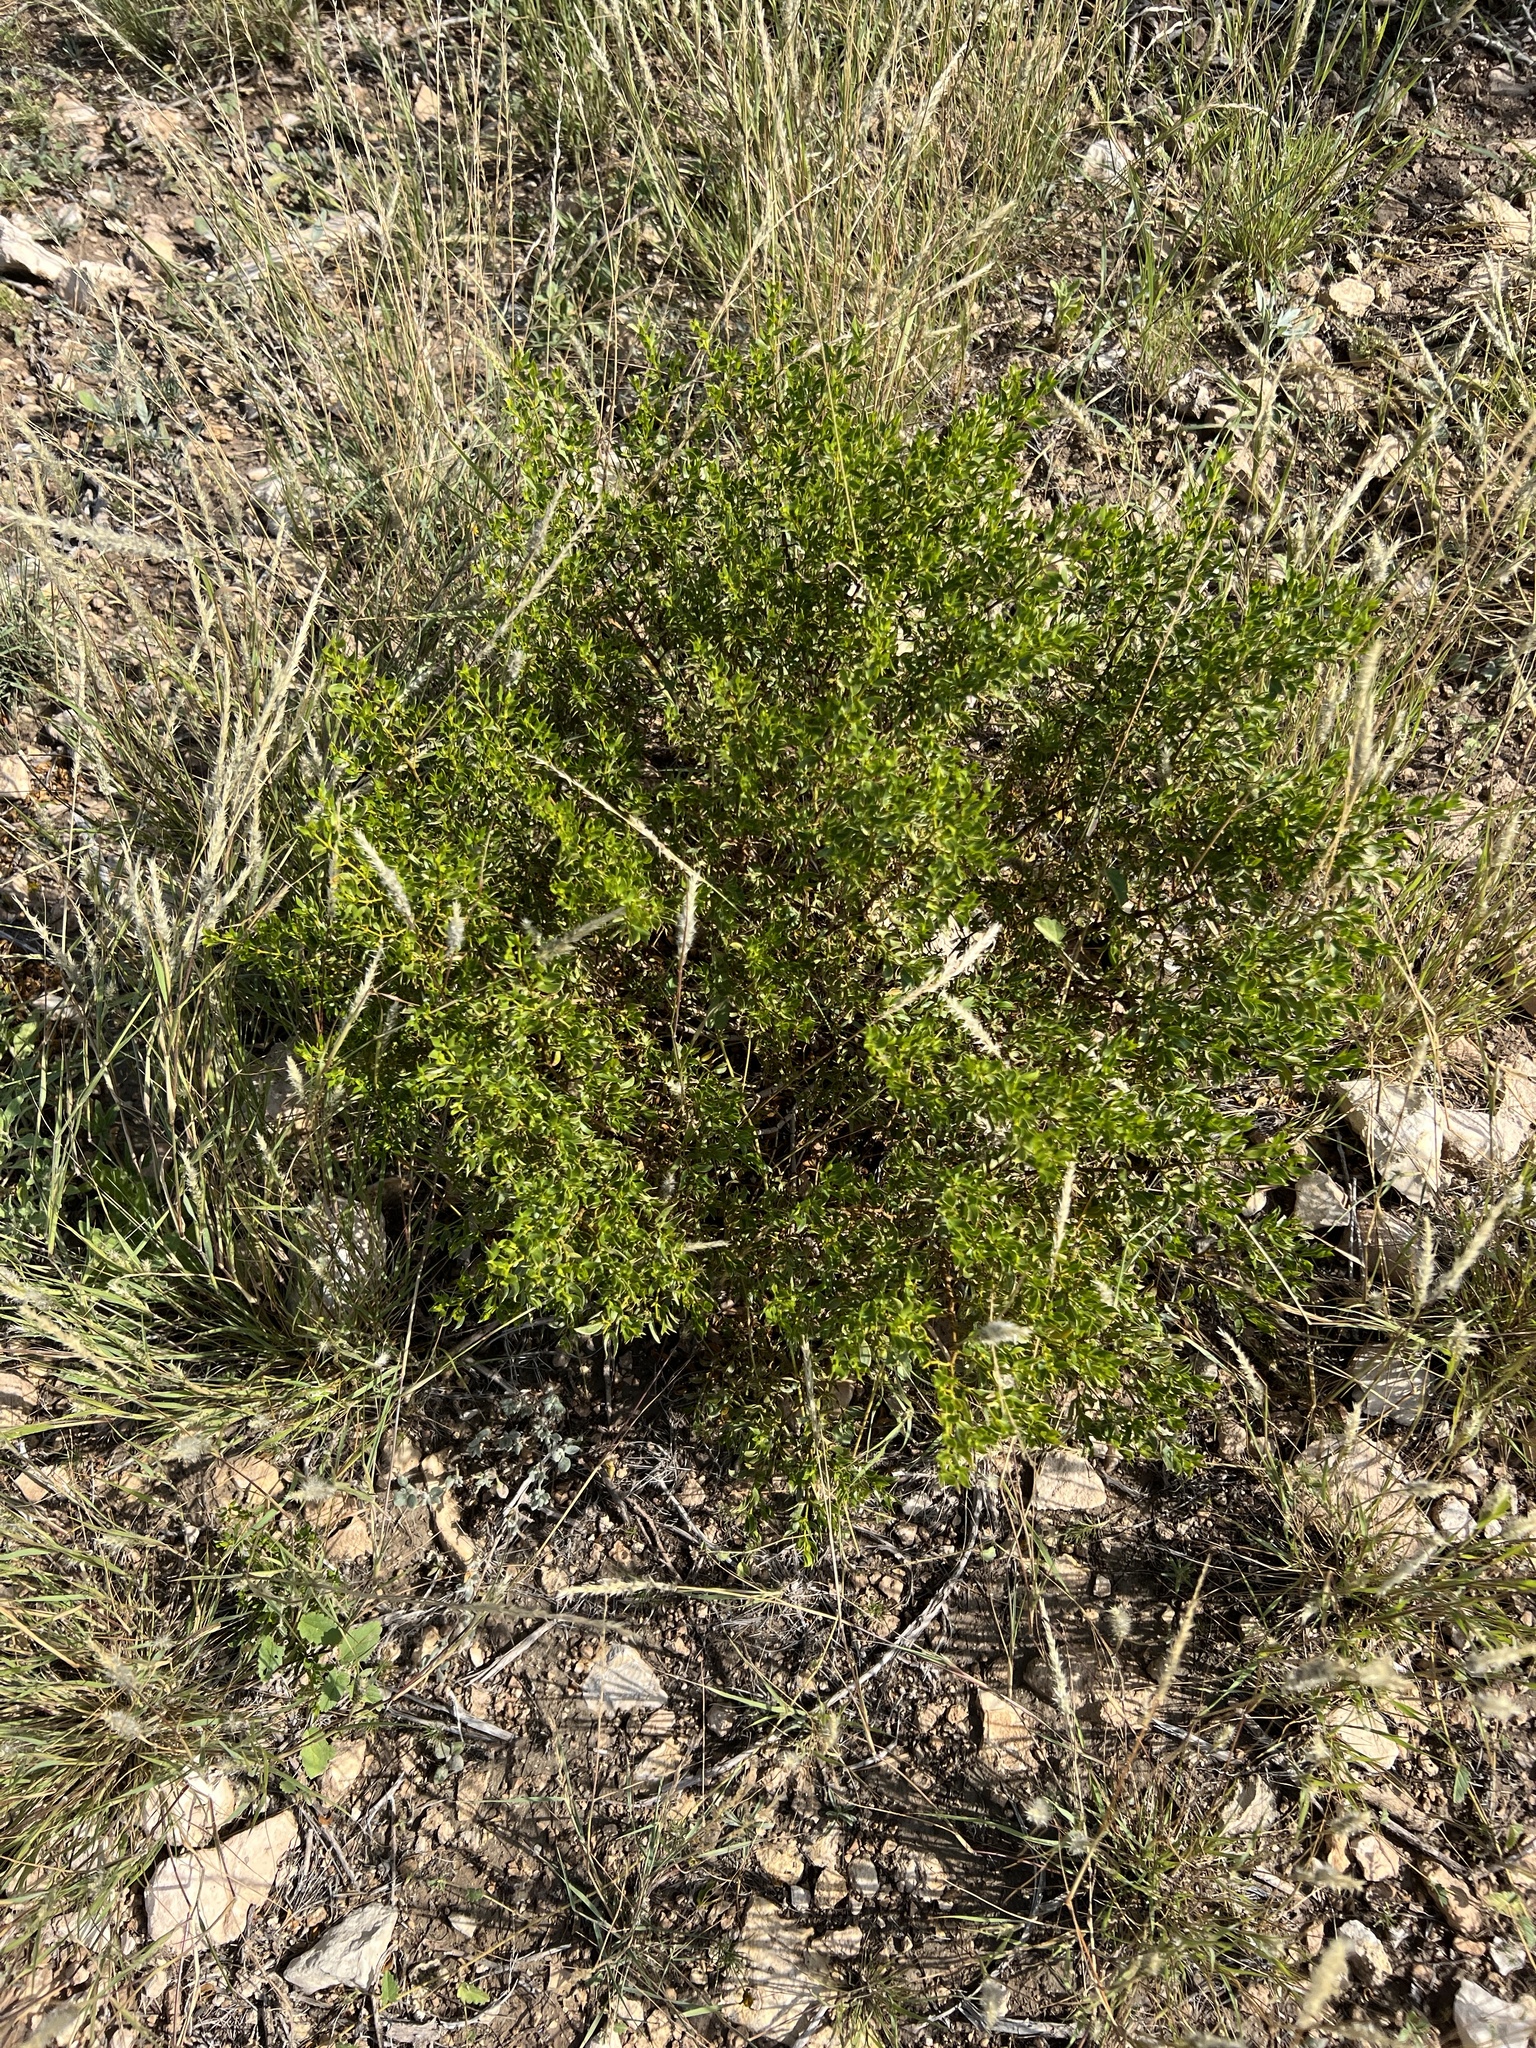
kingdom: Plantae
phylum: Tracheophyta
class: Magnoliopsida
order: Zygophyllales
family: Zygophyllaceae
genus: Larrea
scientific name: Larrea tridentata
